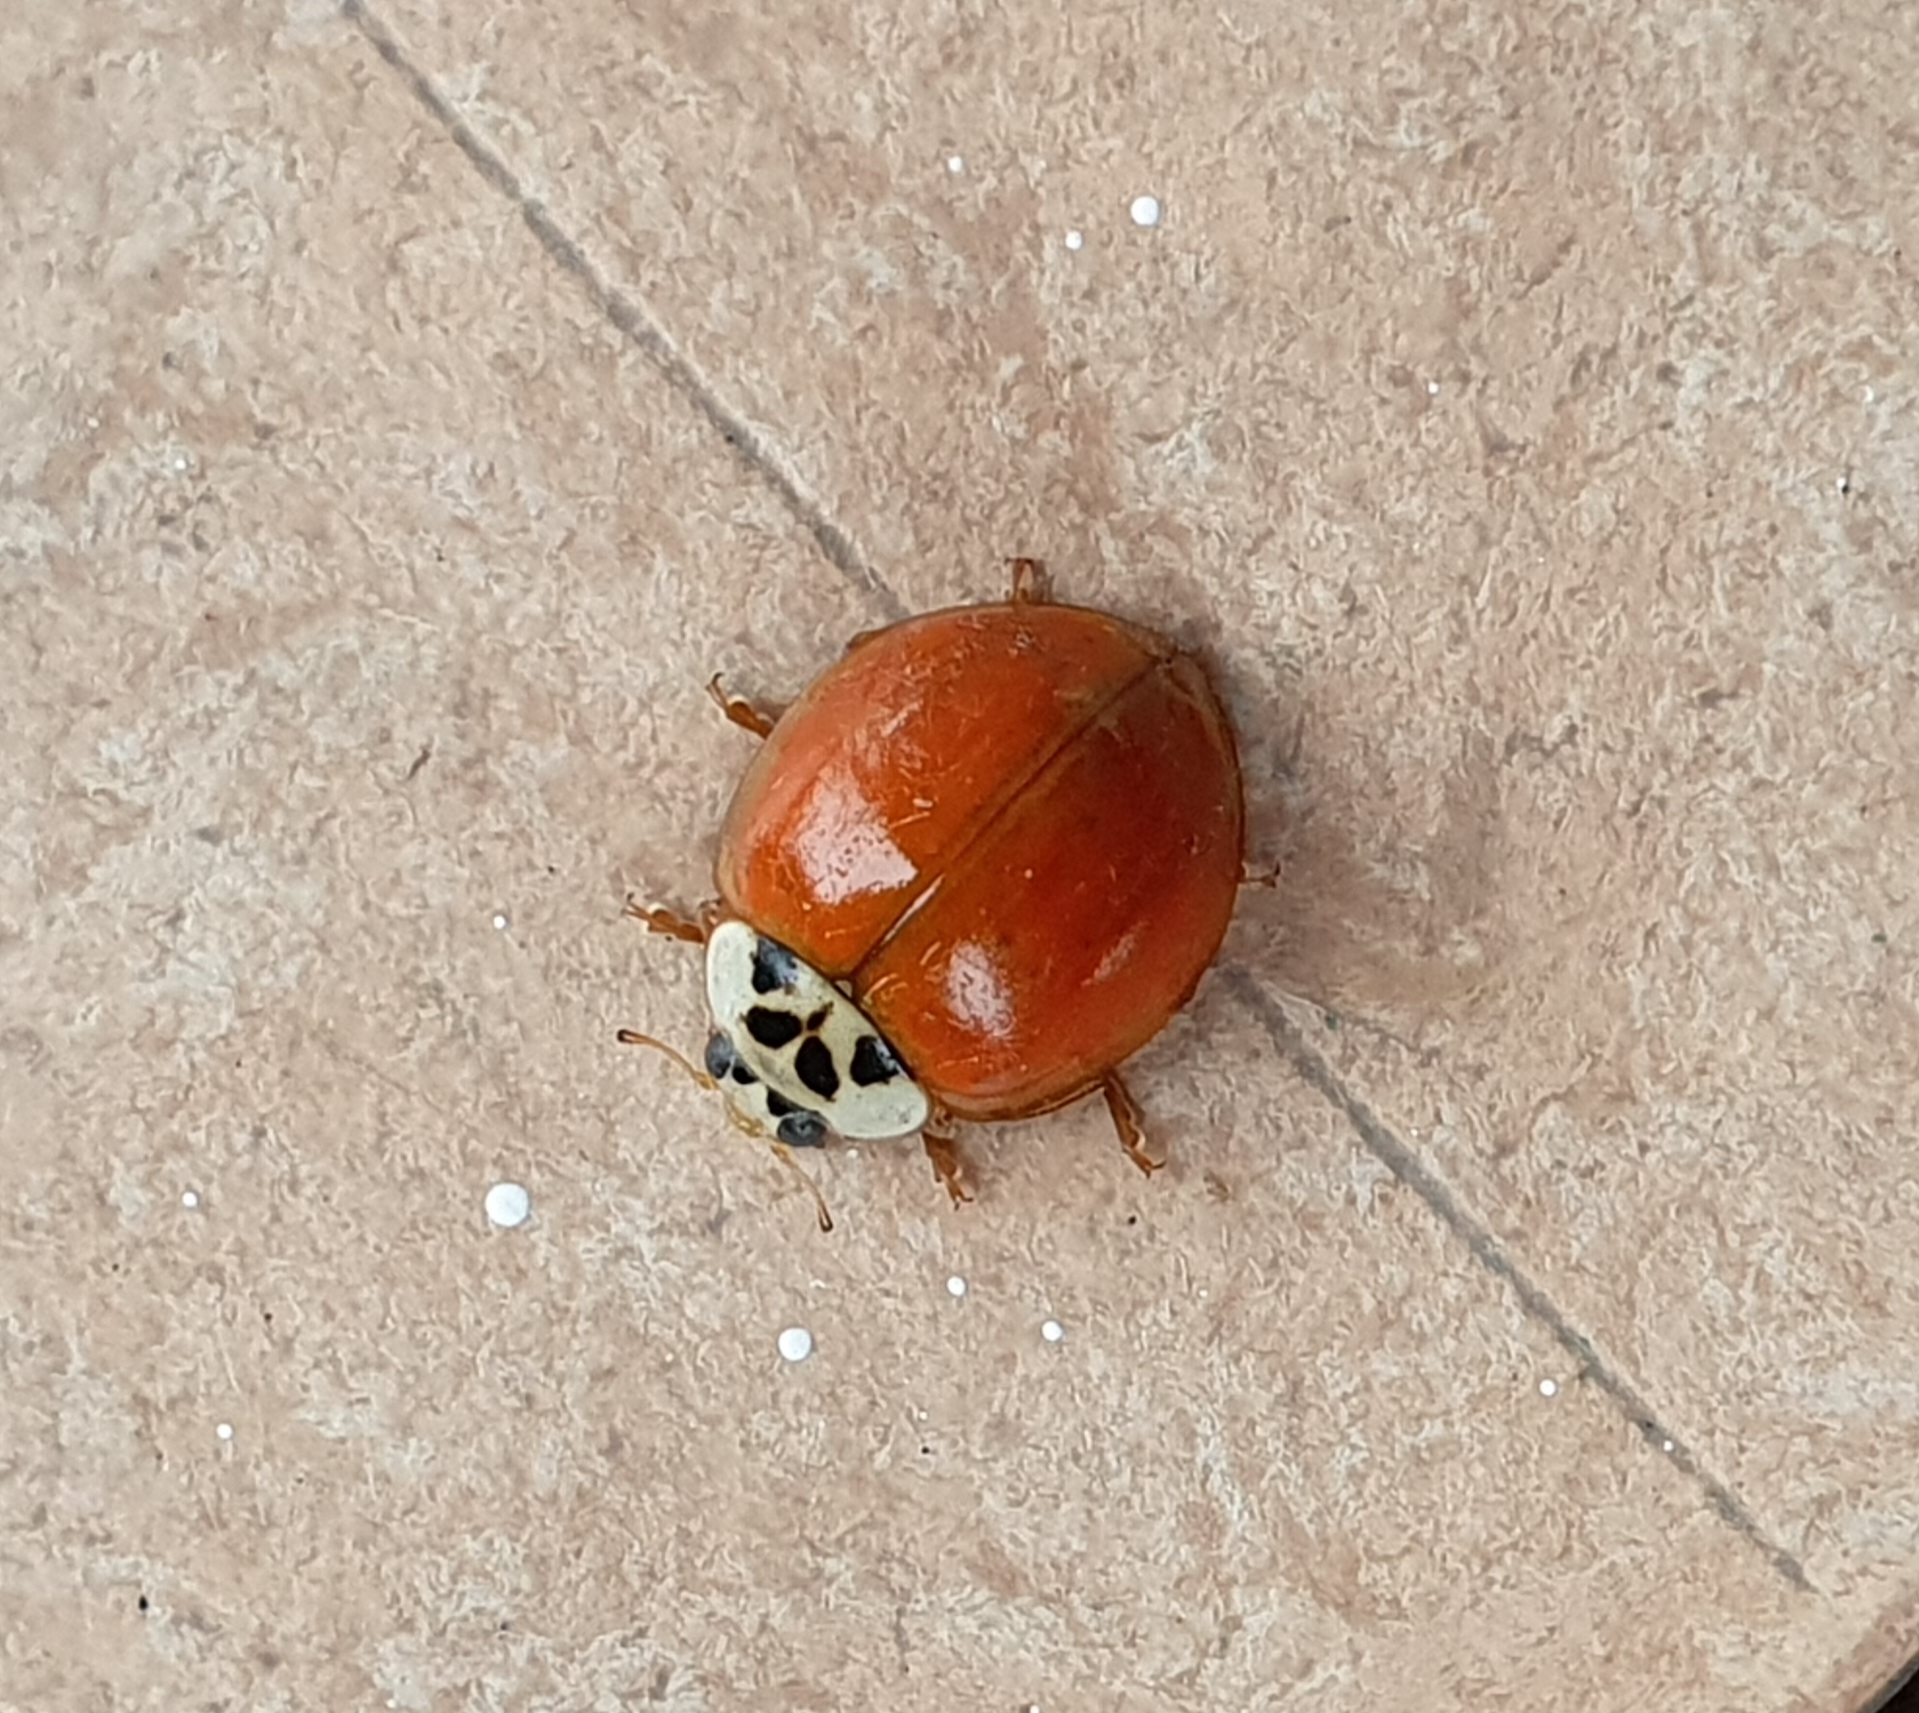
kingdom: Animalia
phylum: Arthropoda
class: Insecta
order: Coleoptera
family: Coccinellidae
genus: Harmonia
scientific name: Harmonia axyridis
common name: Harlequin ladybird
